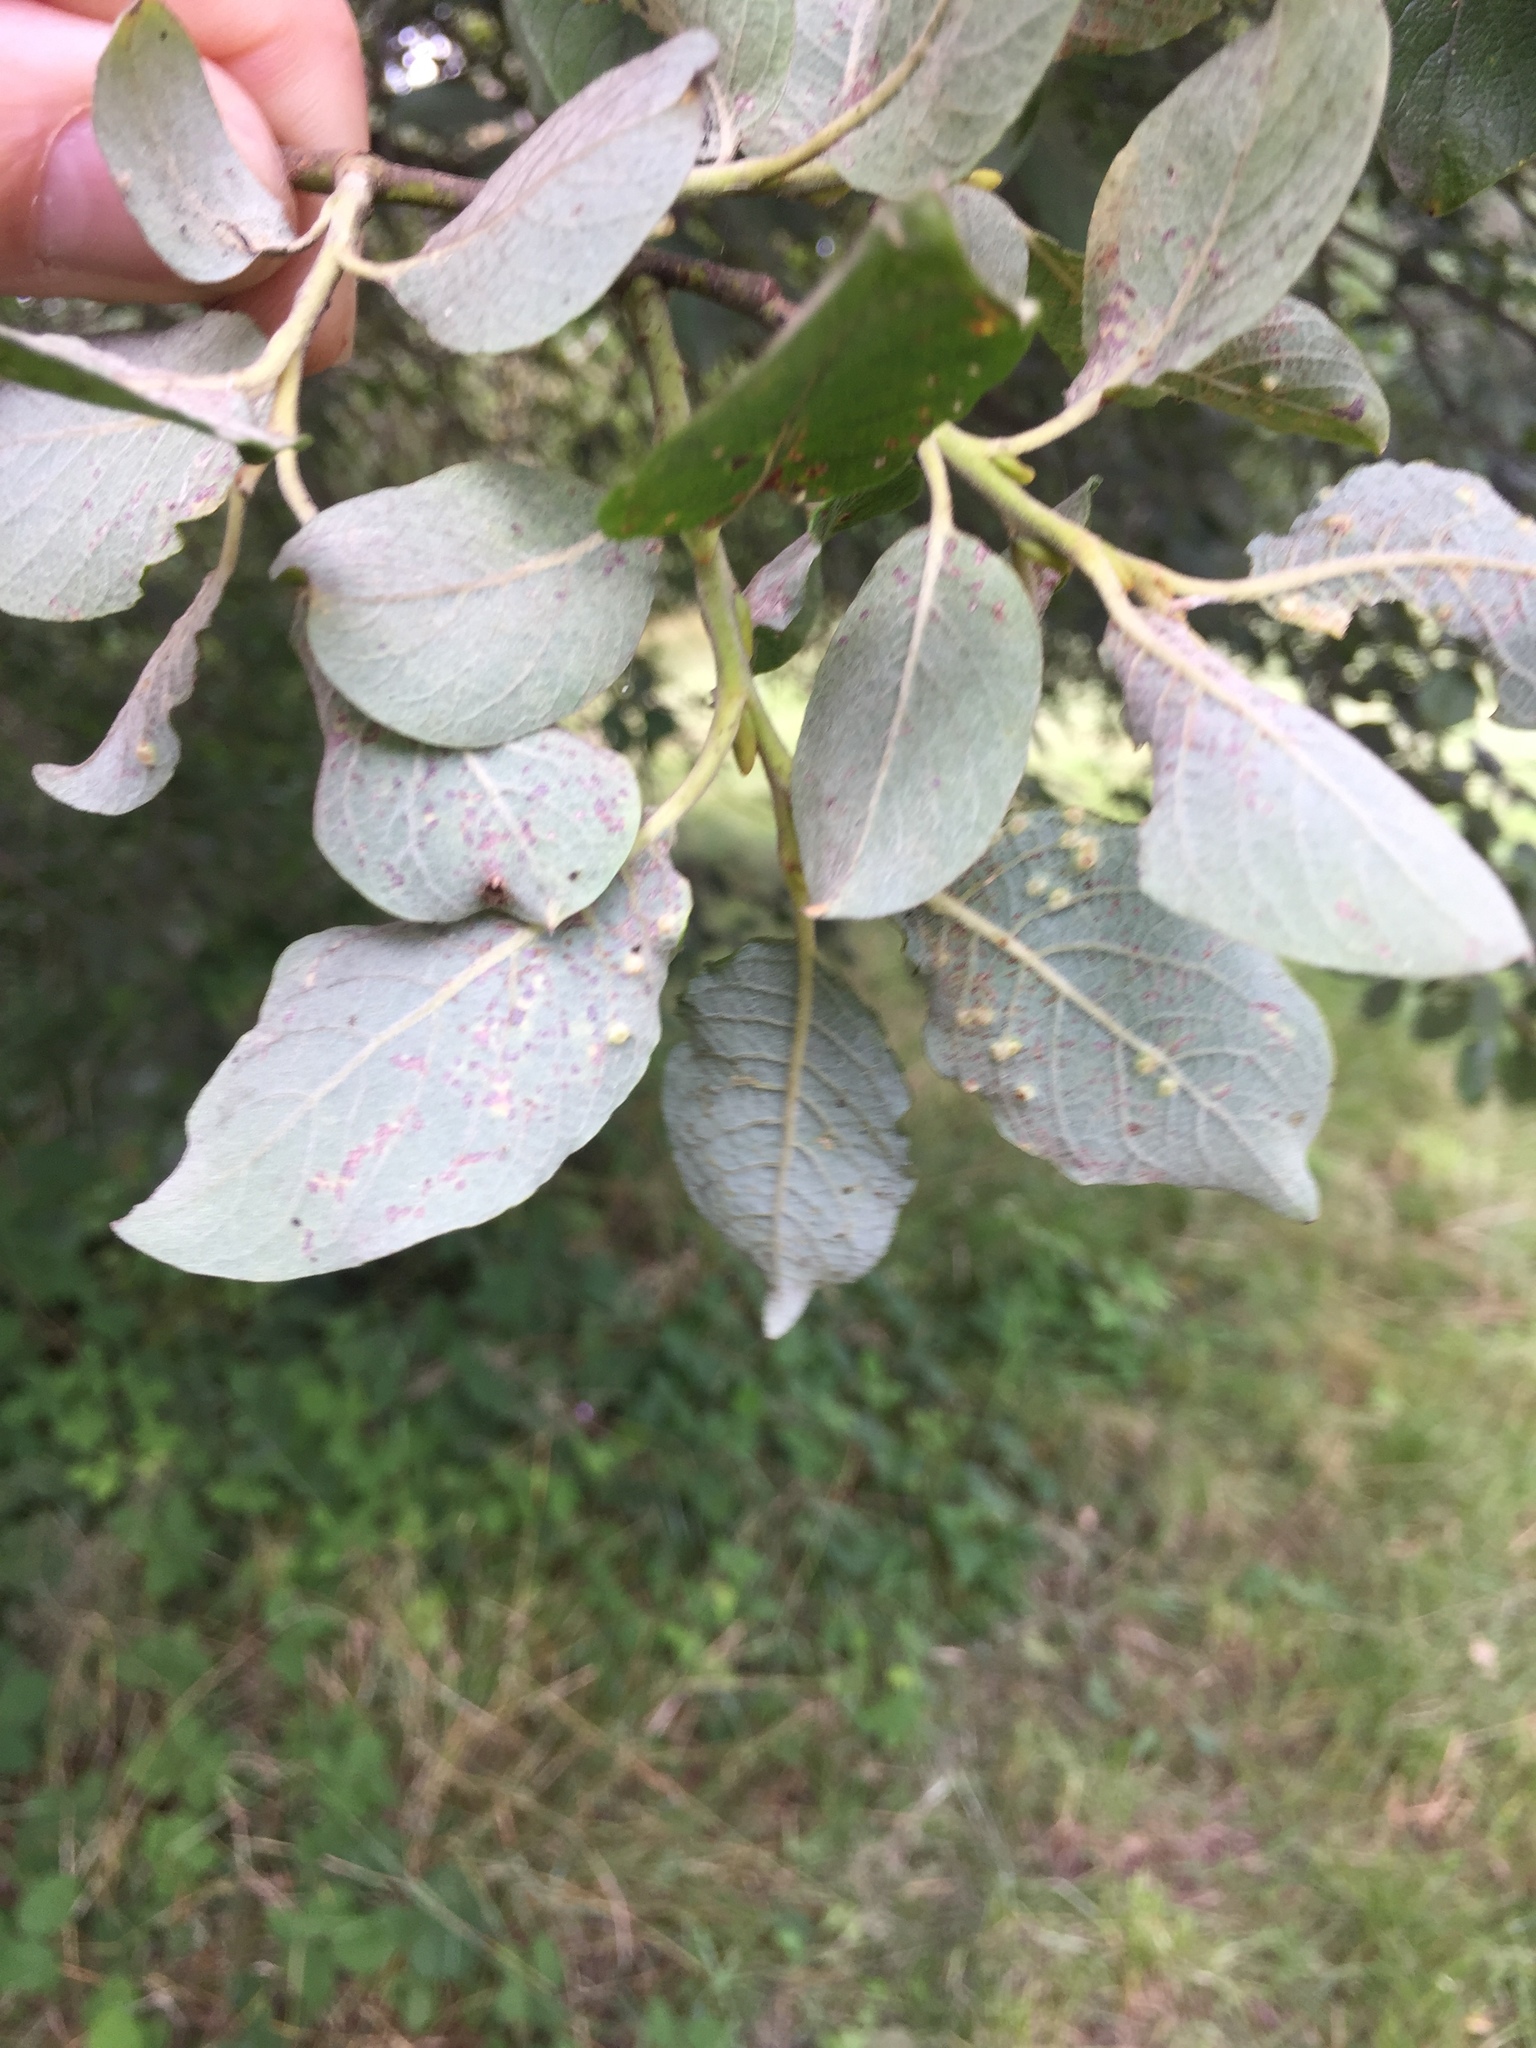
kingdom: Animalia
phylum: Arthropoda
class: Insecta
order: Diptera
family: Cecidomyiidae
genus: Iteomyia
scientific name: Iteomyia capreae
